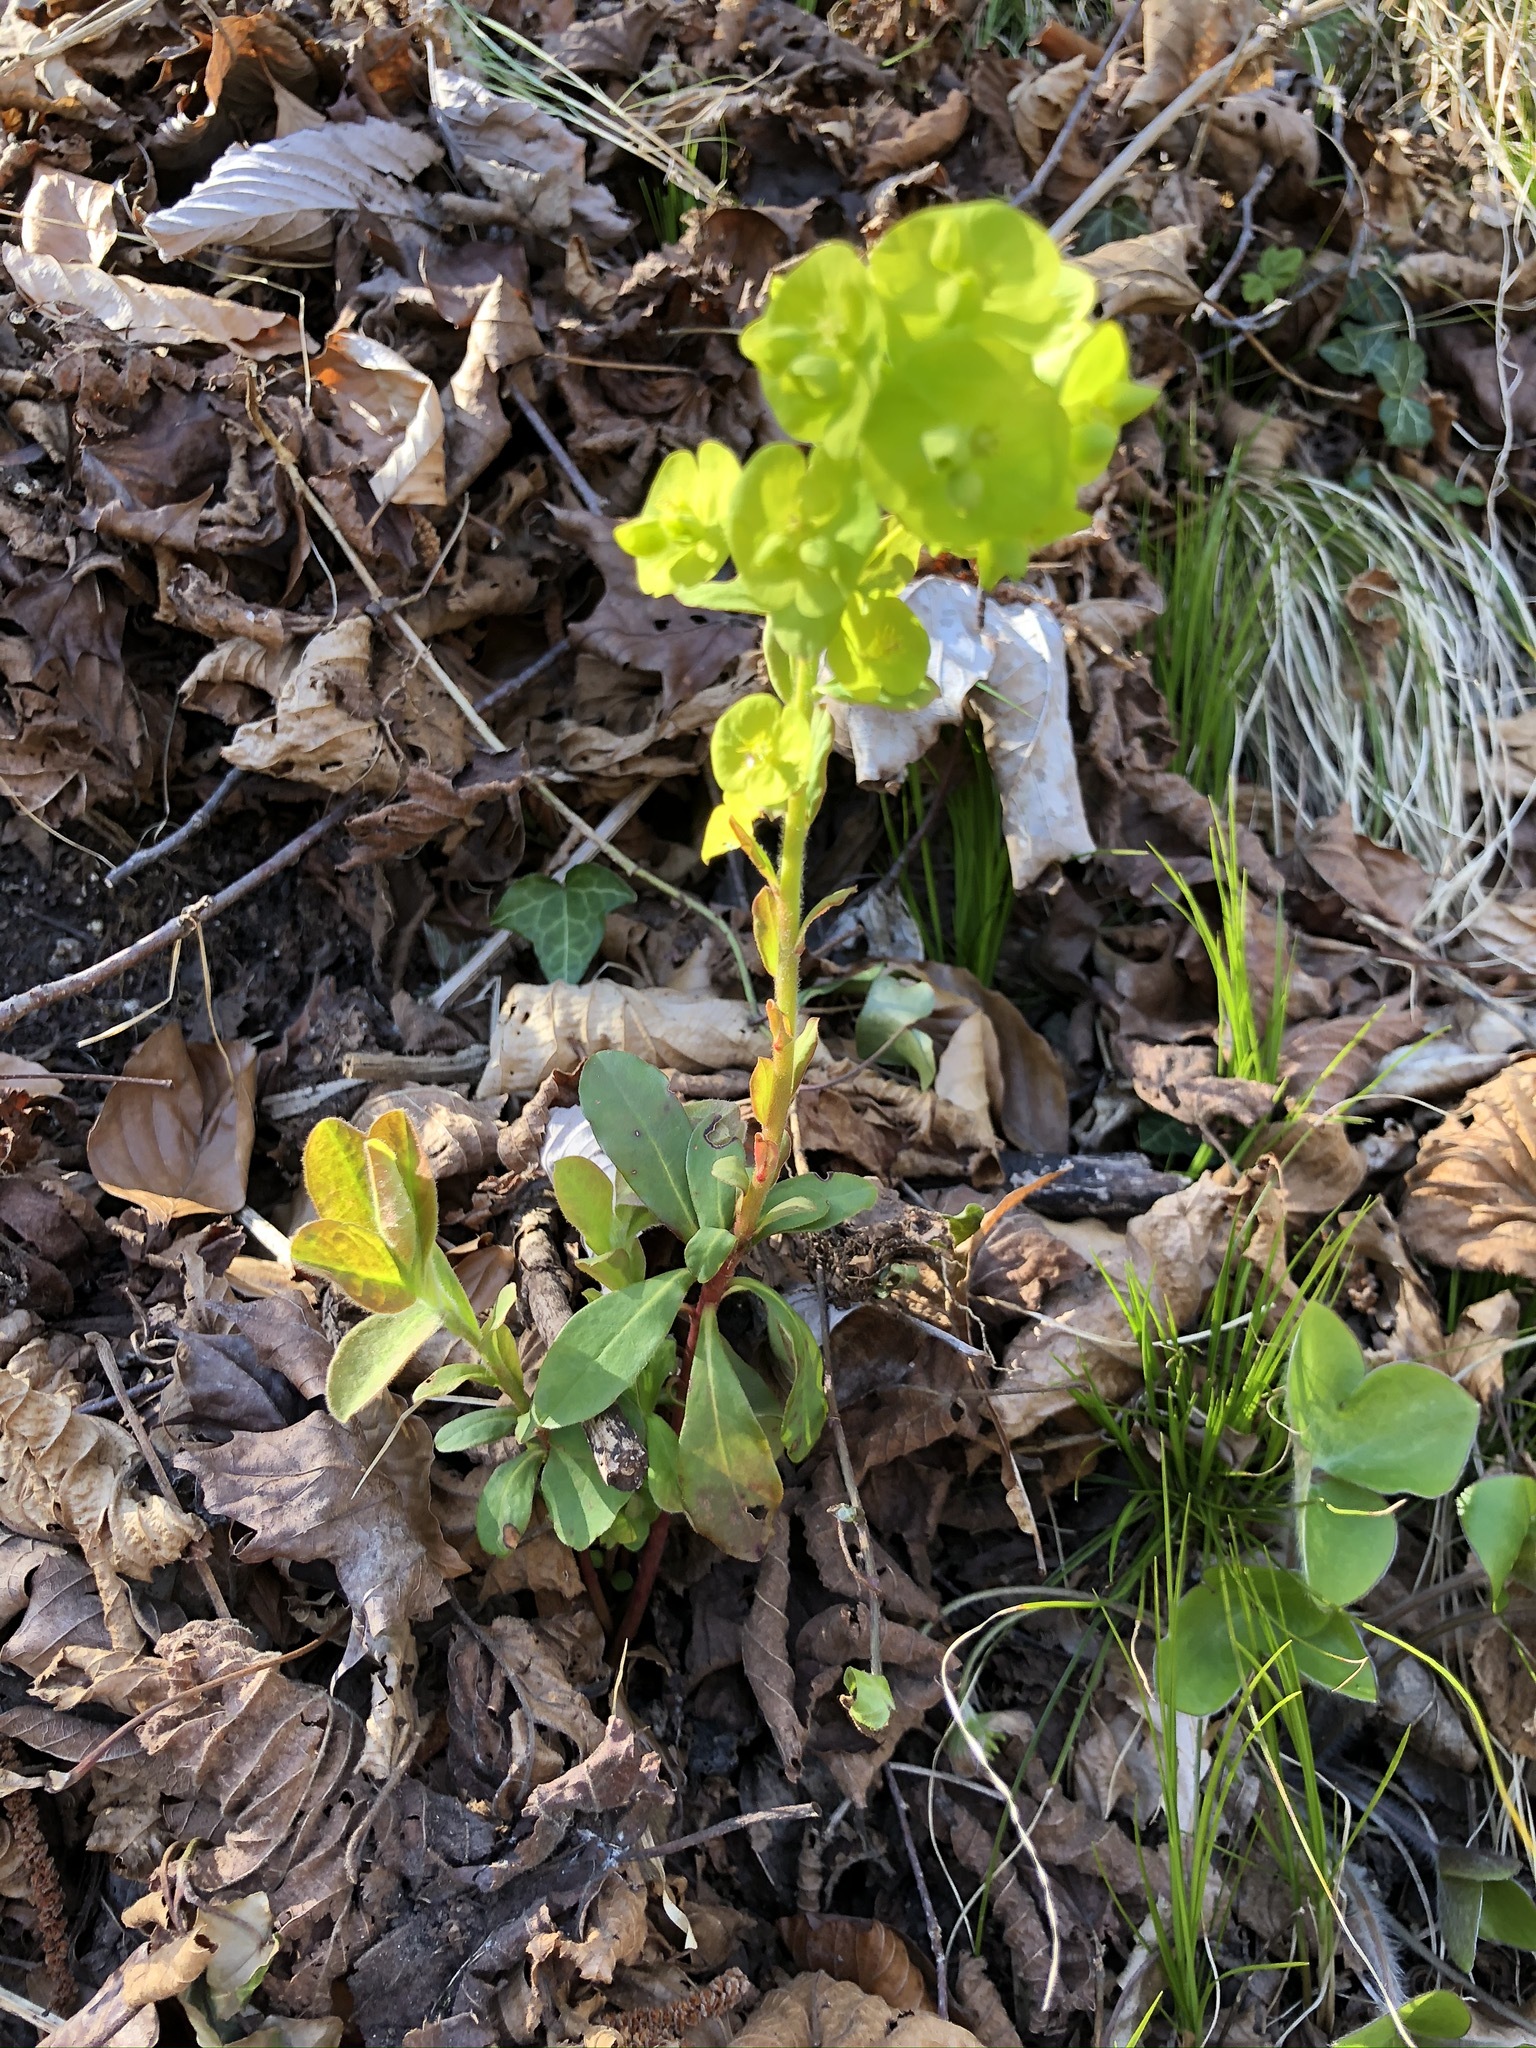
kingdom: Plantae
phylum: Tracheophyta
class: Magnoliopsida
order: Malpighiales
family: Euphorbiaceae
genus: Euphorbia
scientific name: Euphorbia amygdaloides
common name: Wood spurge
